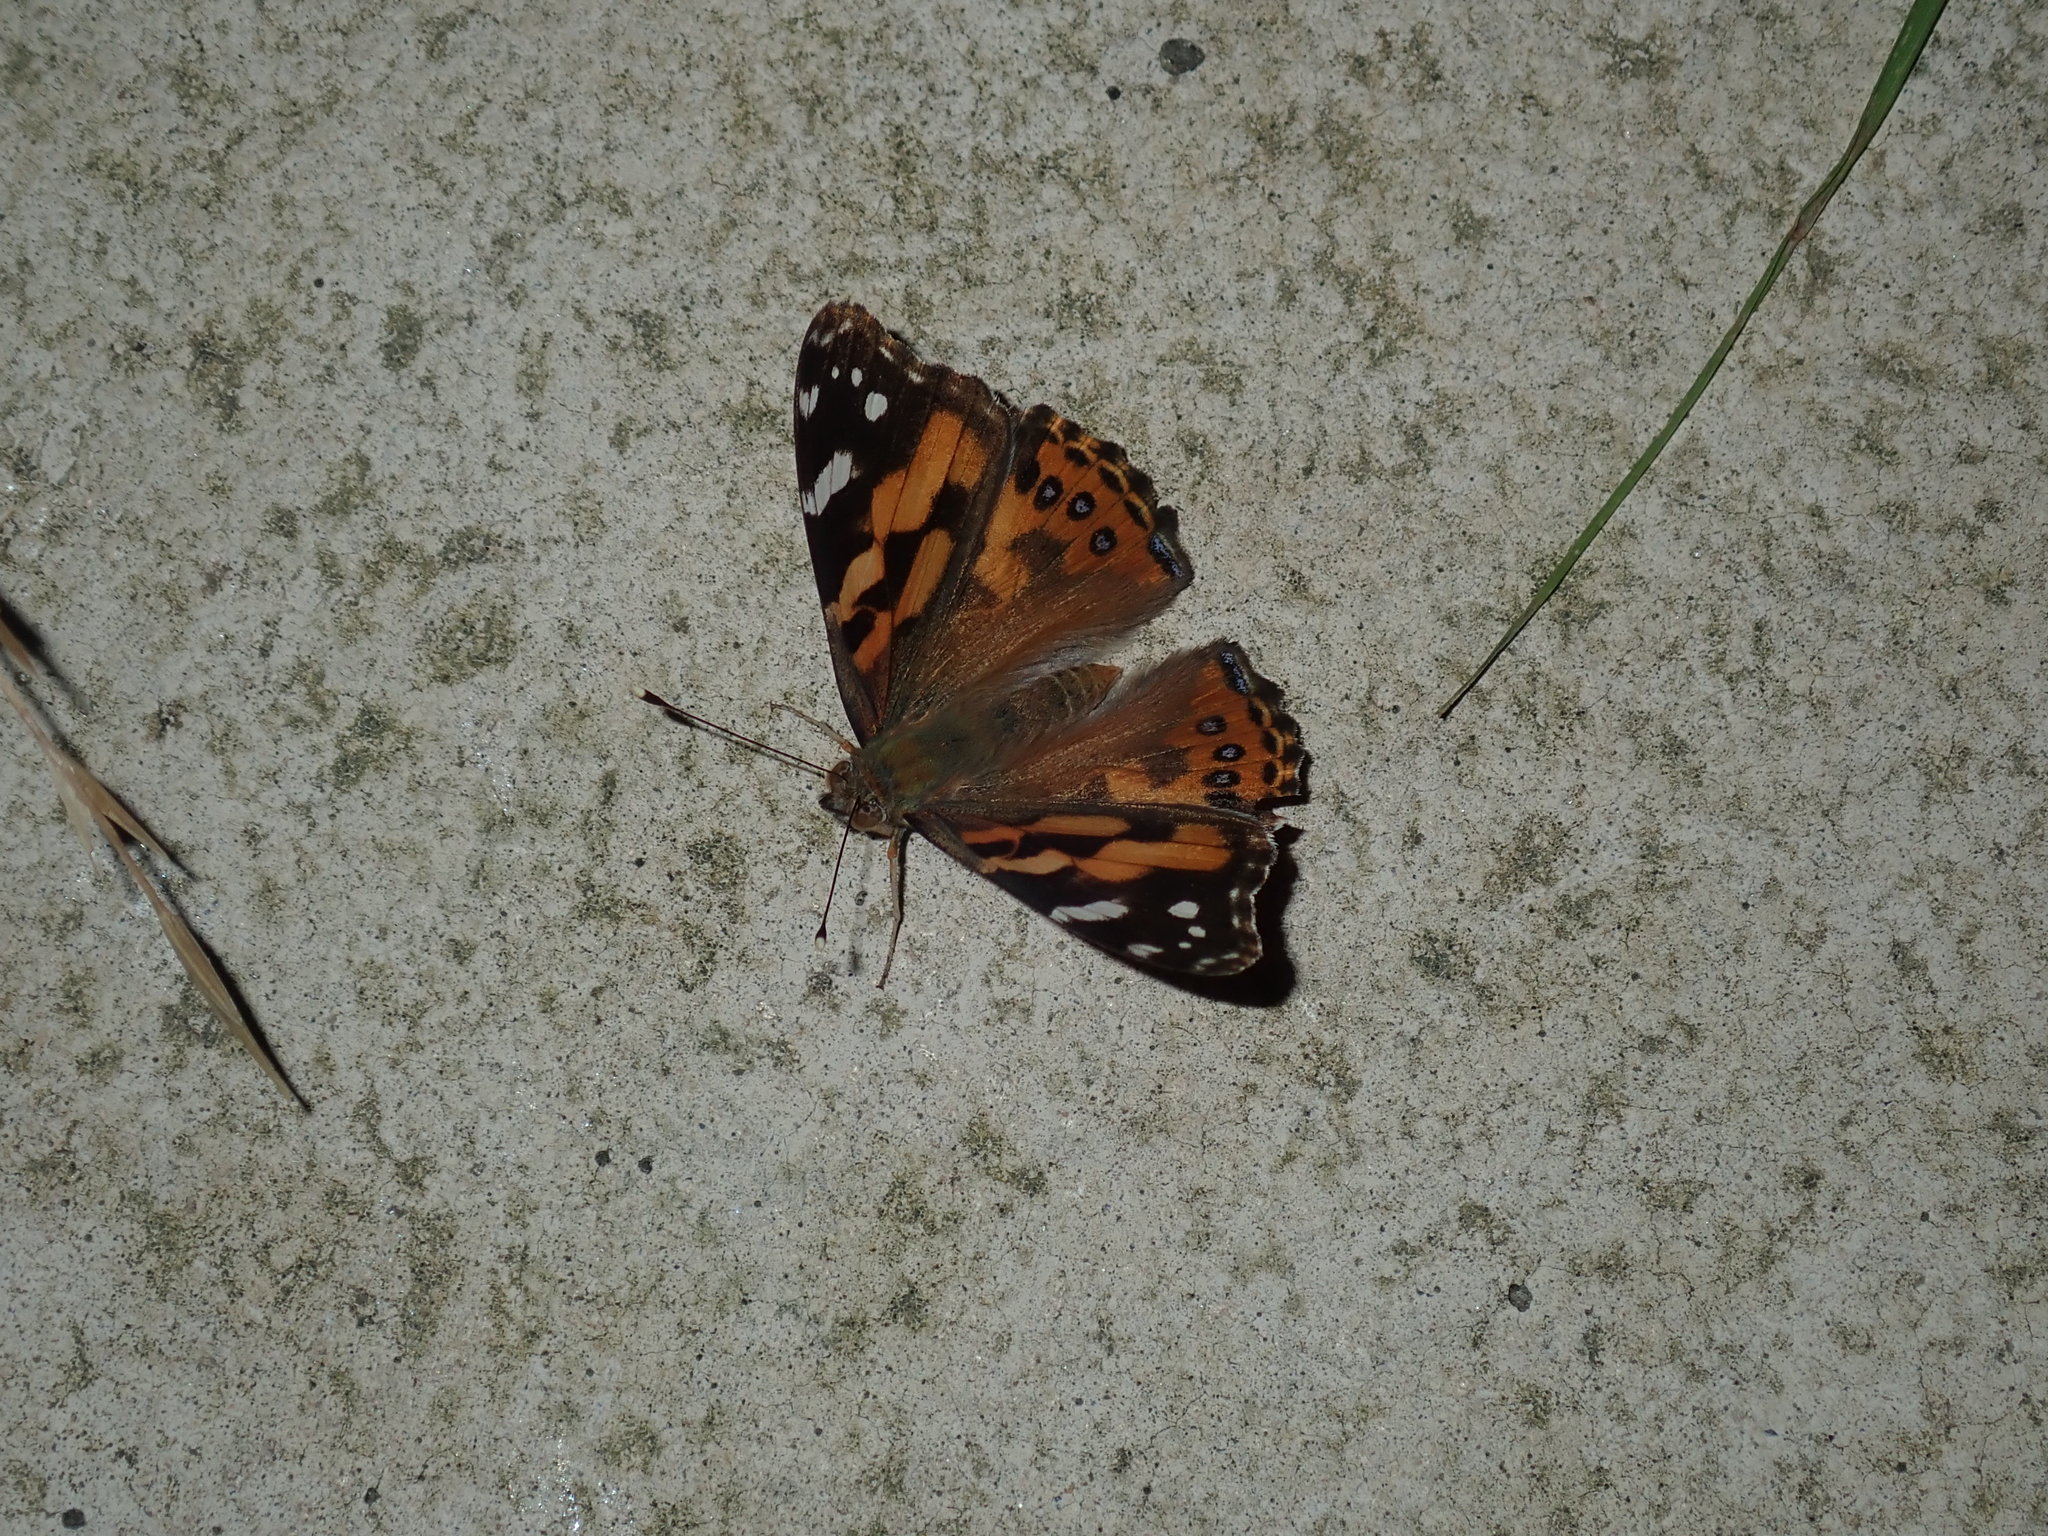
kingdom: Animalia
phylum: Arthropoda
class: Insecta
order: Lepidoptera
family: Nymphalidae
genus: Vanessa
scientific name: Vanessa kershawi
